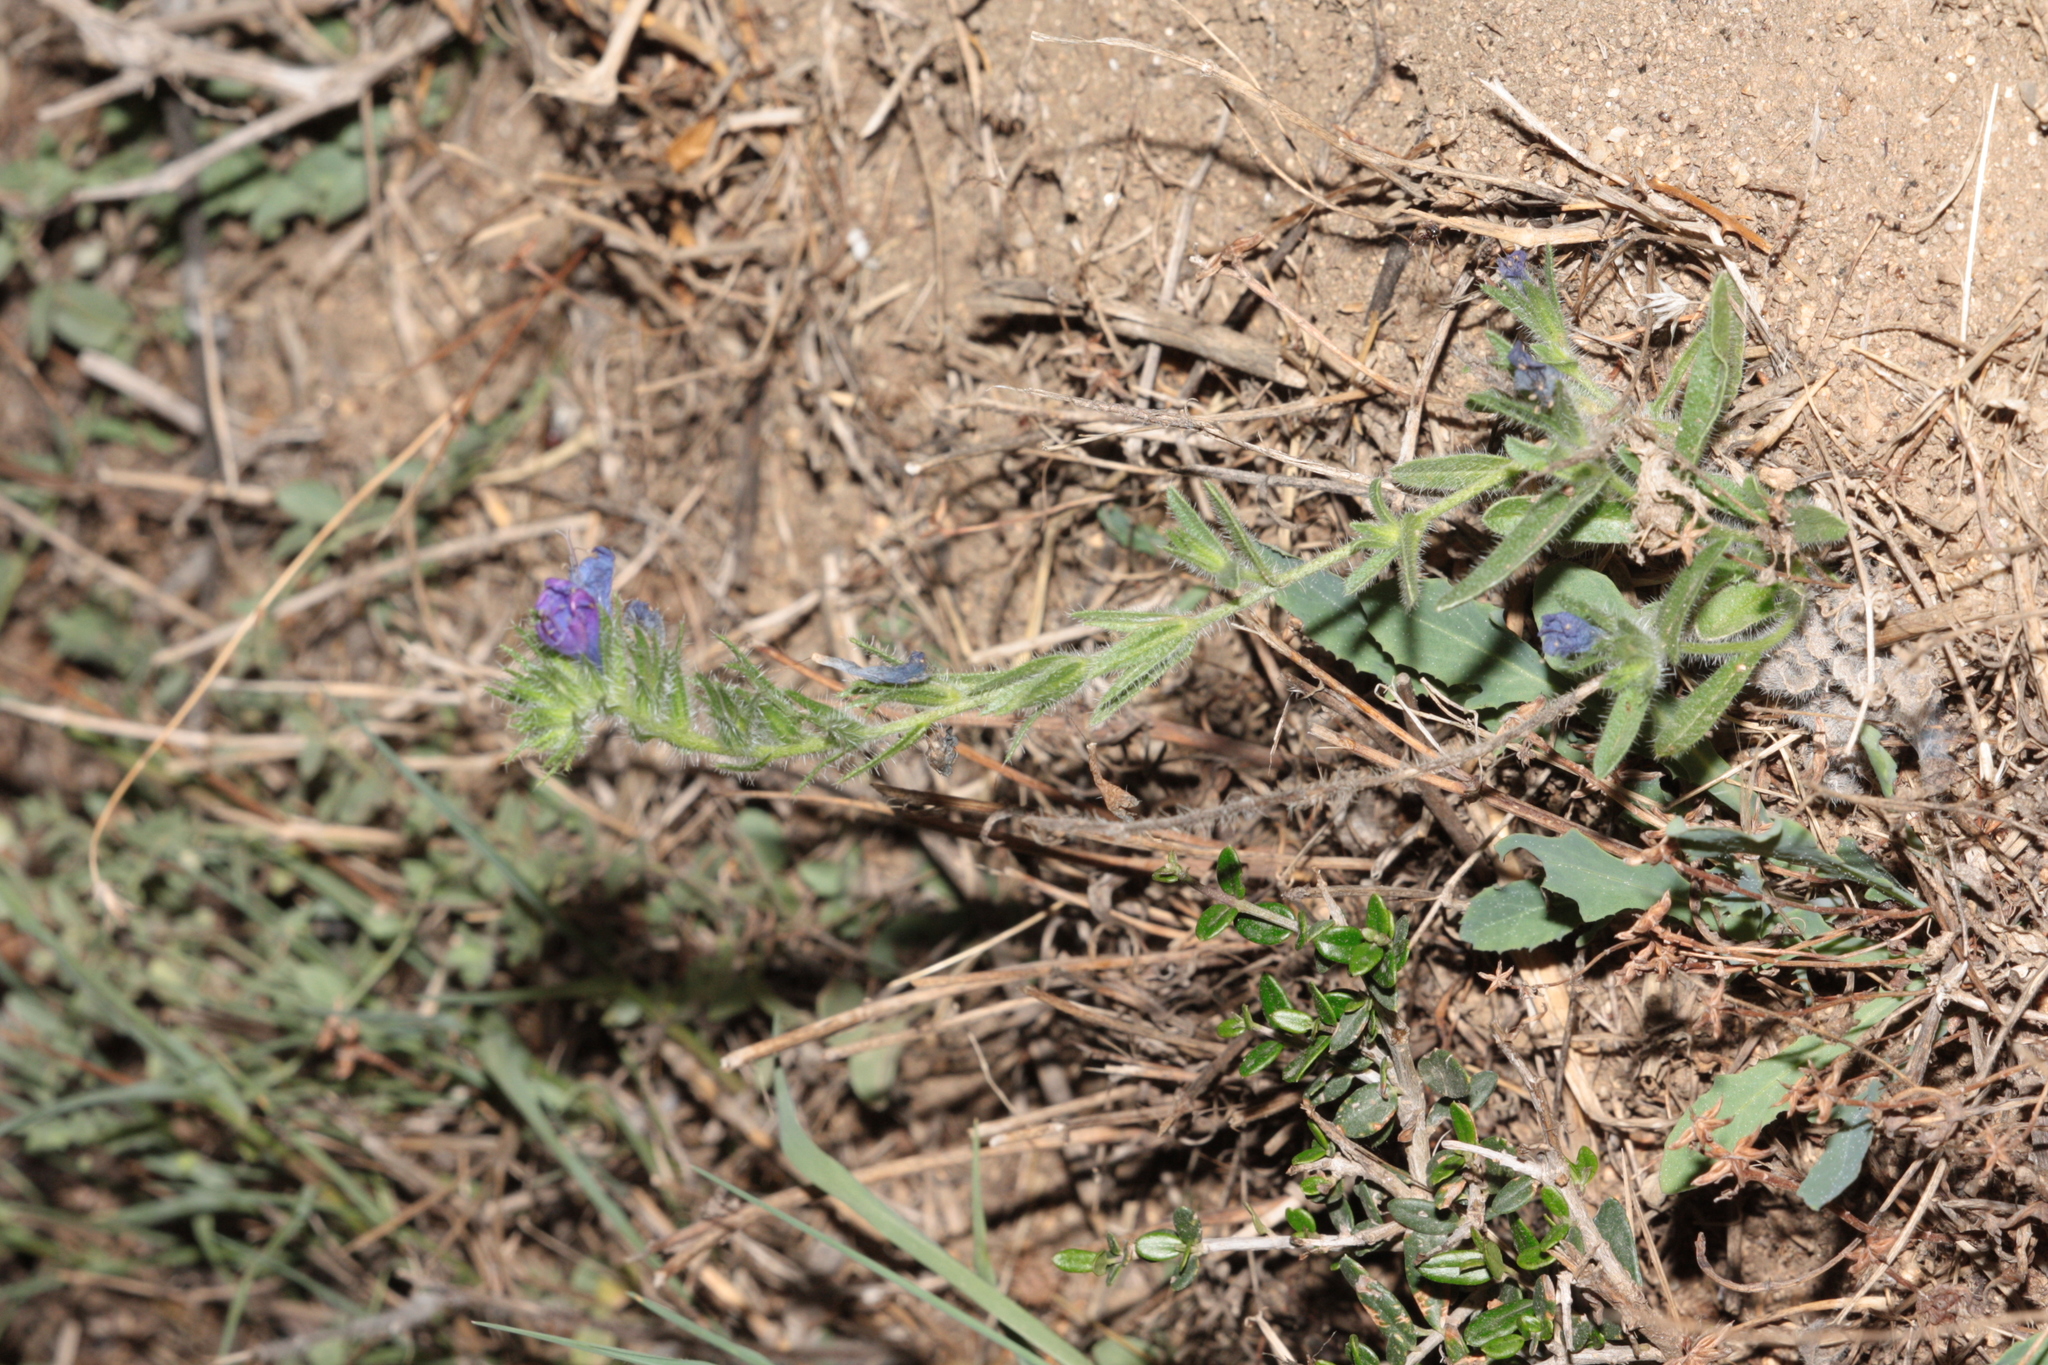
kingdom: Plantae
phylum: Tracheophyta
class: Magnoliopsida
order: Boraginales
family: Boraginaceae
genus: Echium
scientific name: Echium plantagineum
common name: Purple viper's-bugloss
